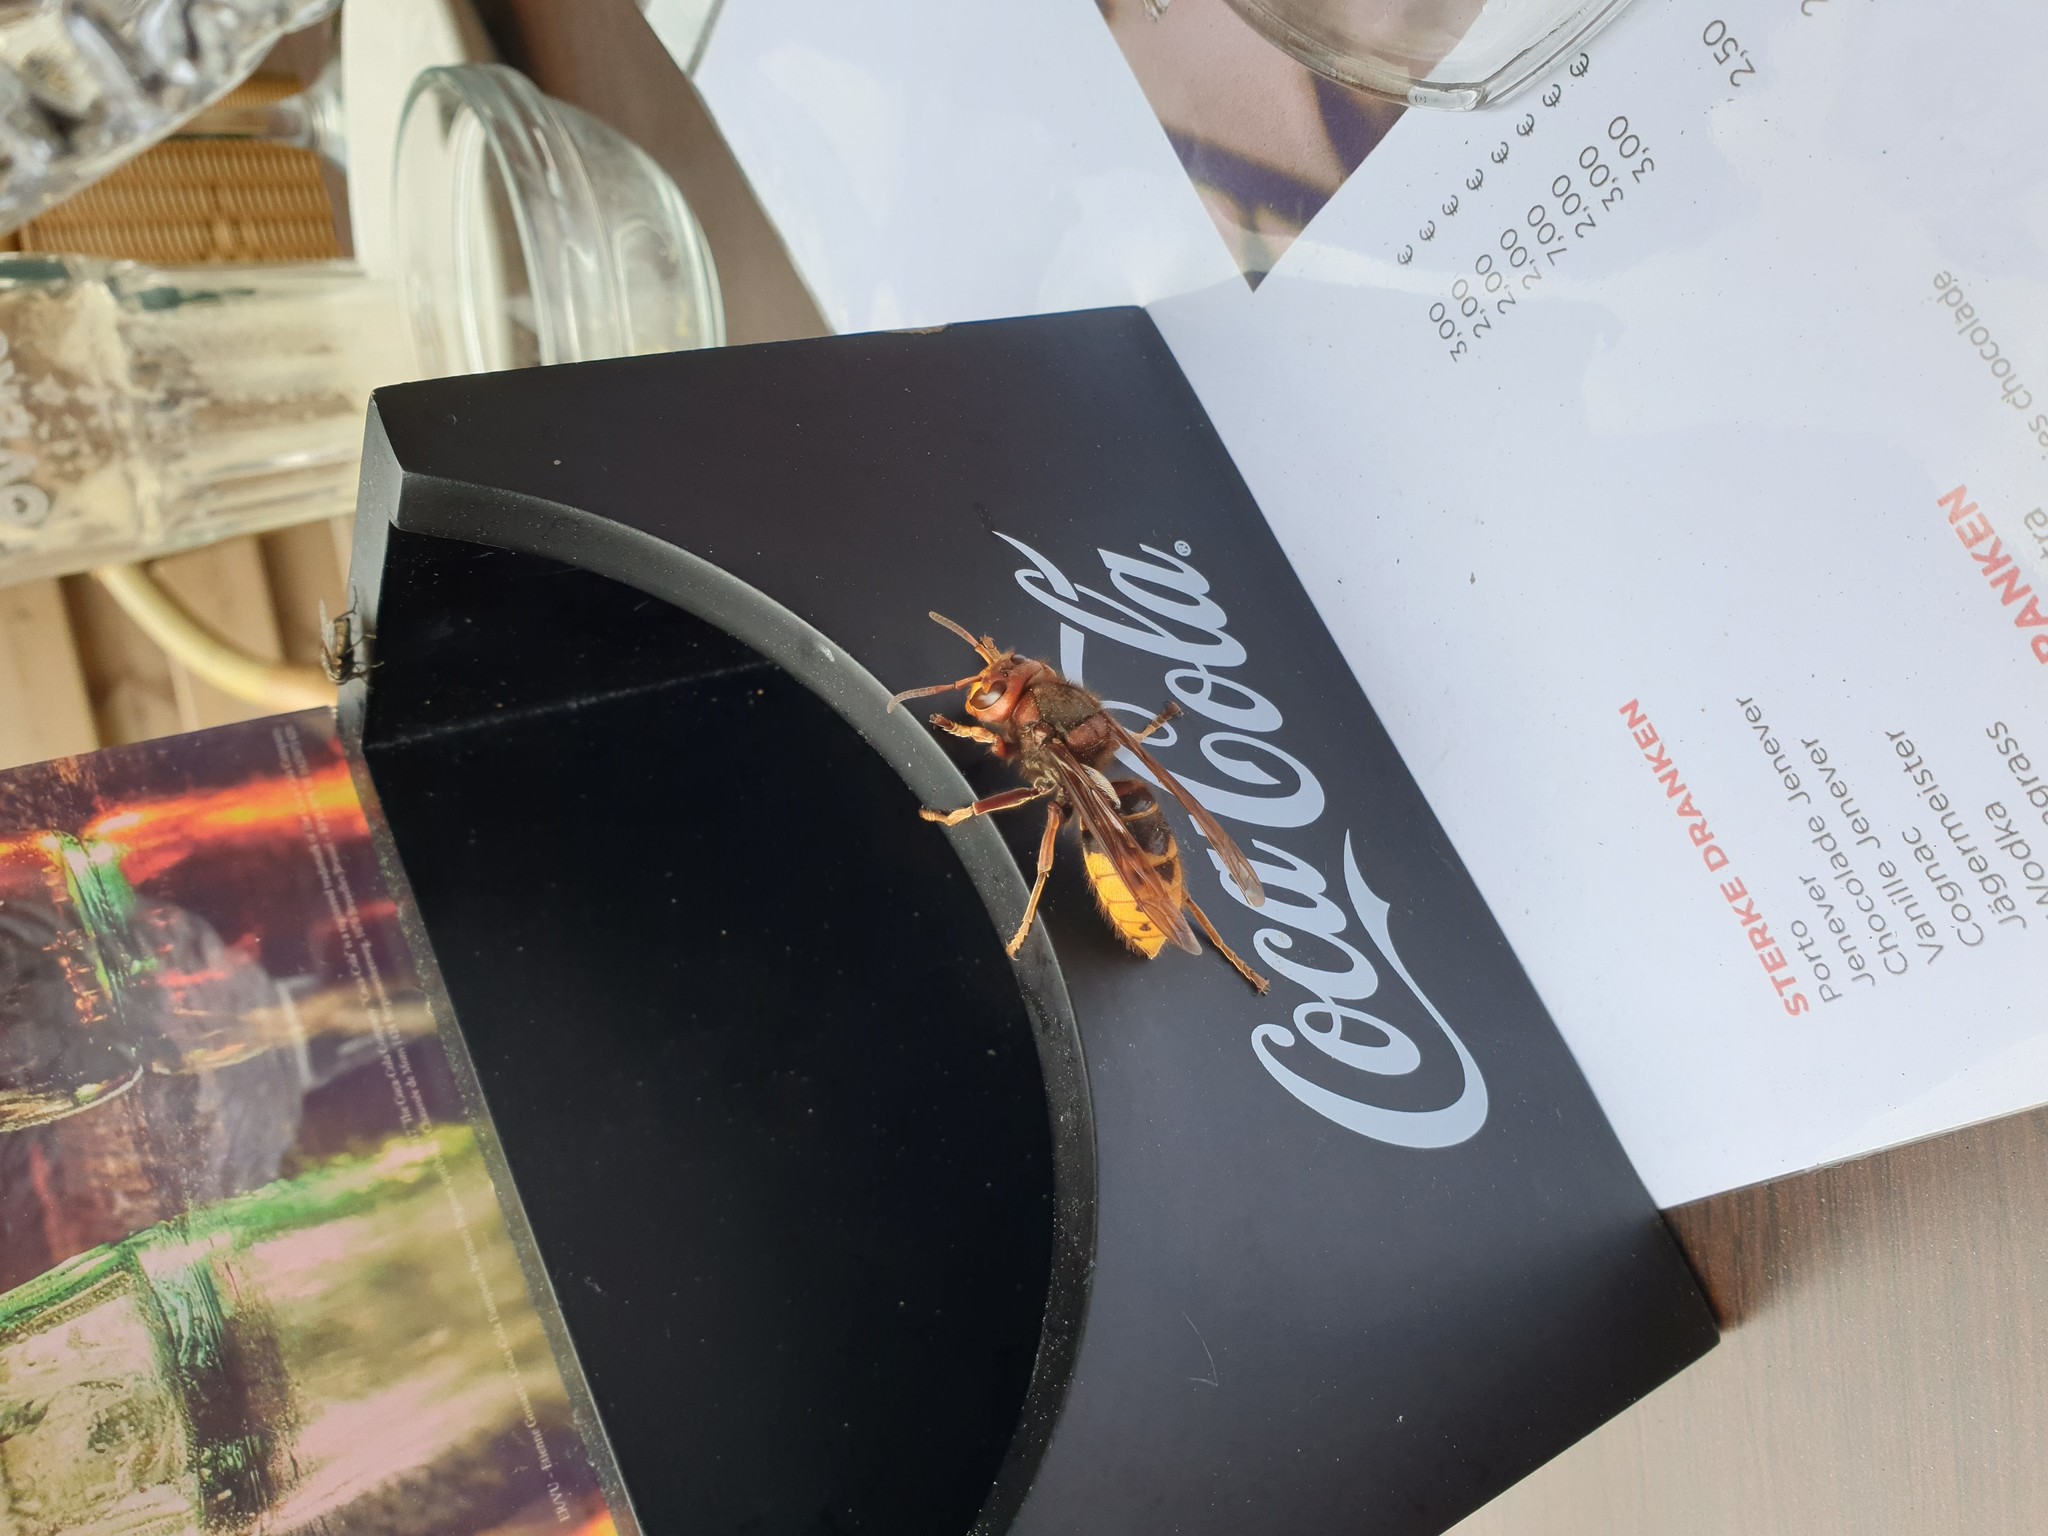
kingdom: Animalia
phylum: Arthropoda
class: Insecta
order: Hymenoptera
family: Vespidae
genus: Vespa
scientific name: Vespa crabro
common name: Hornet
